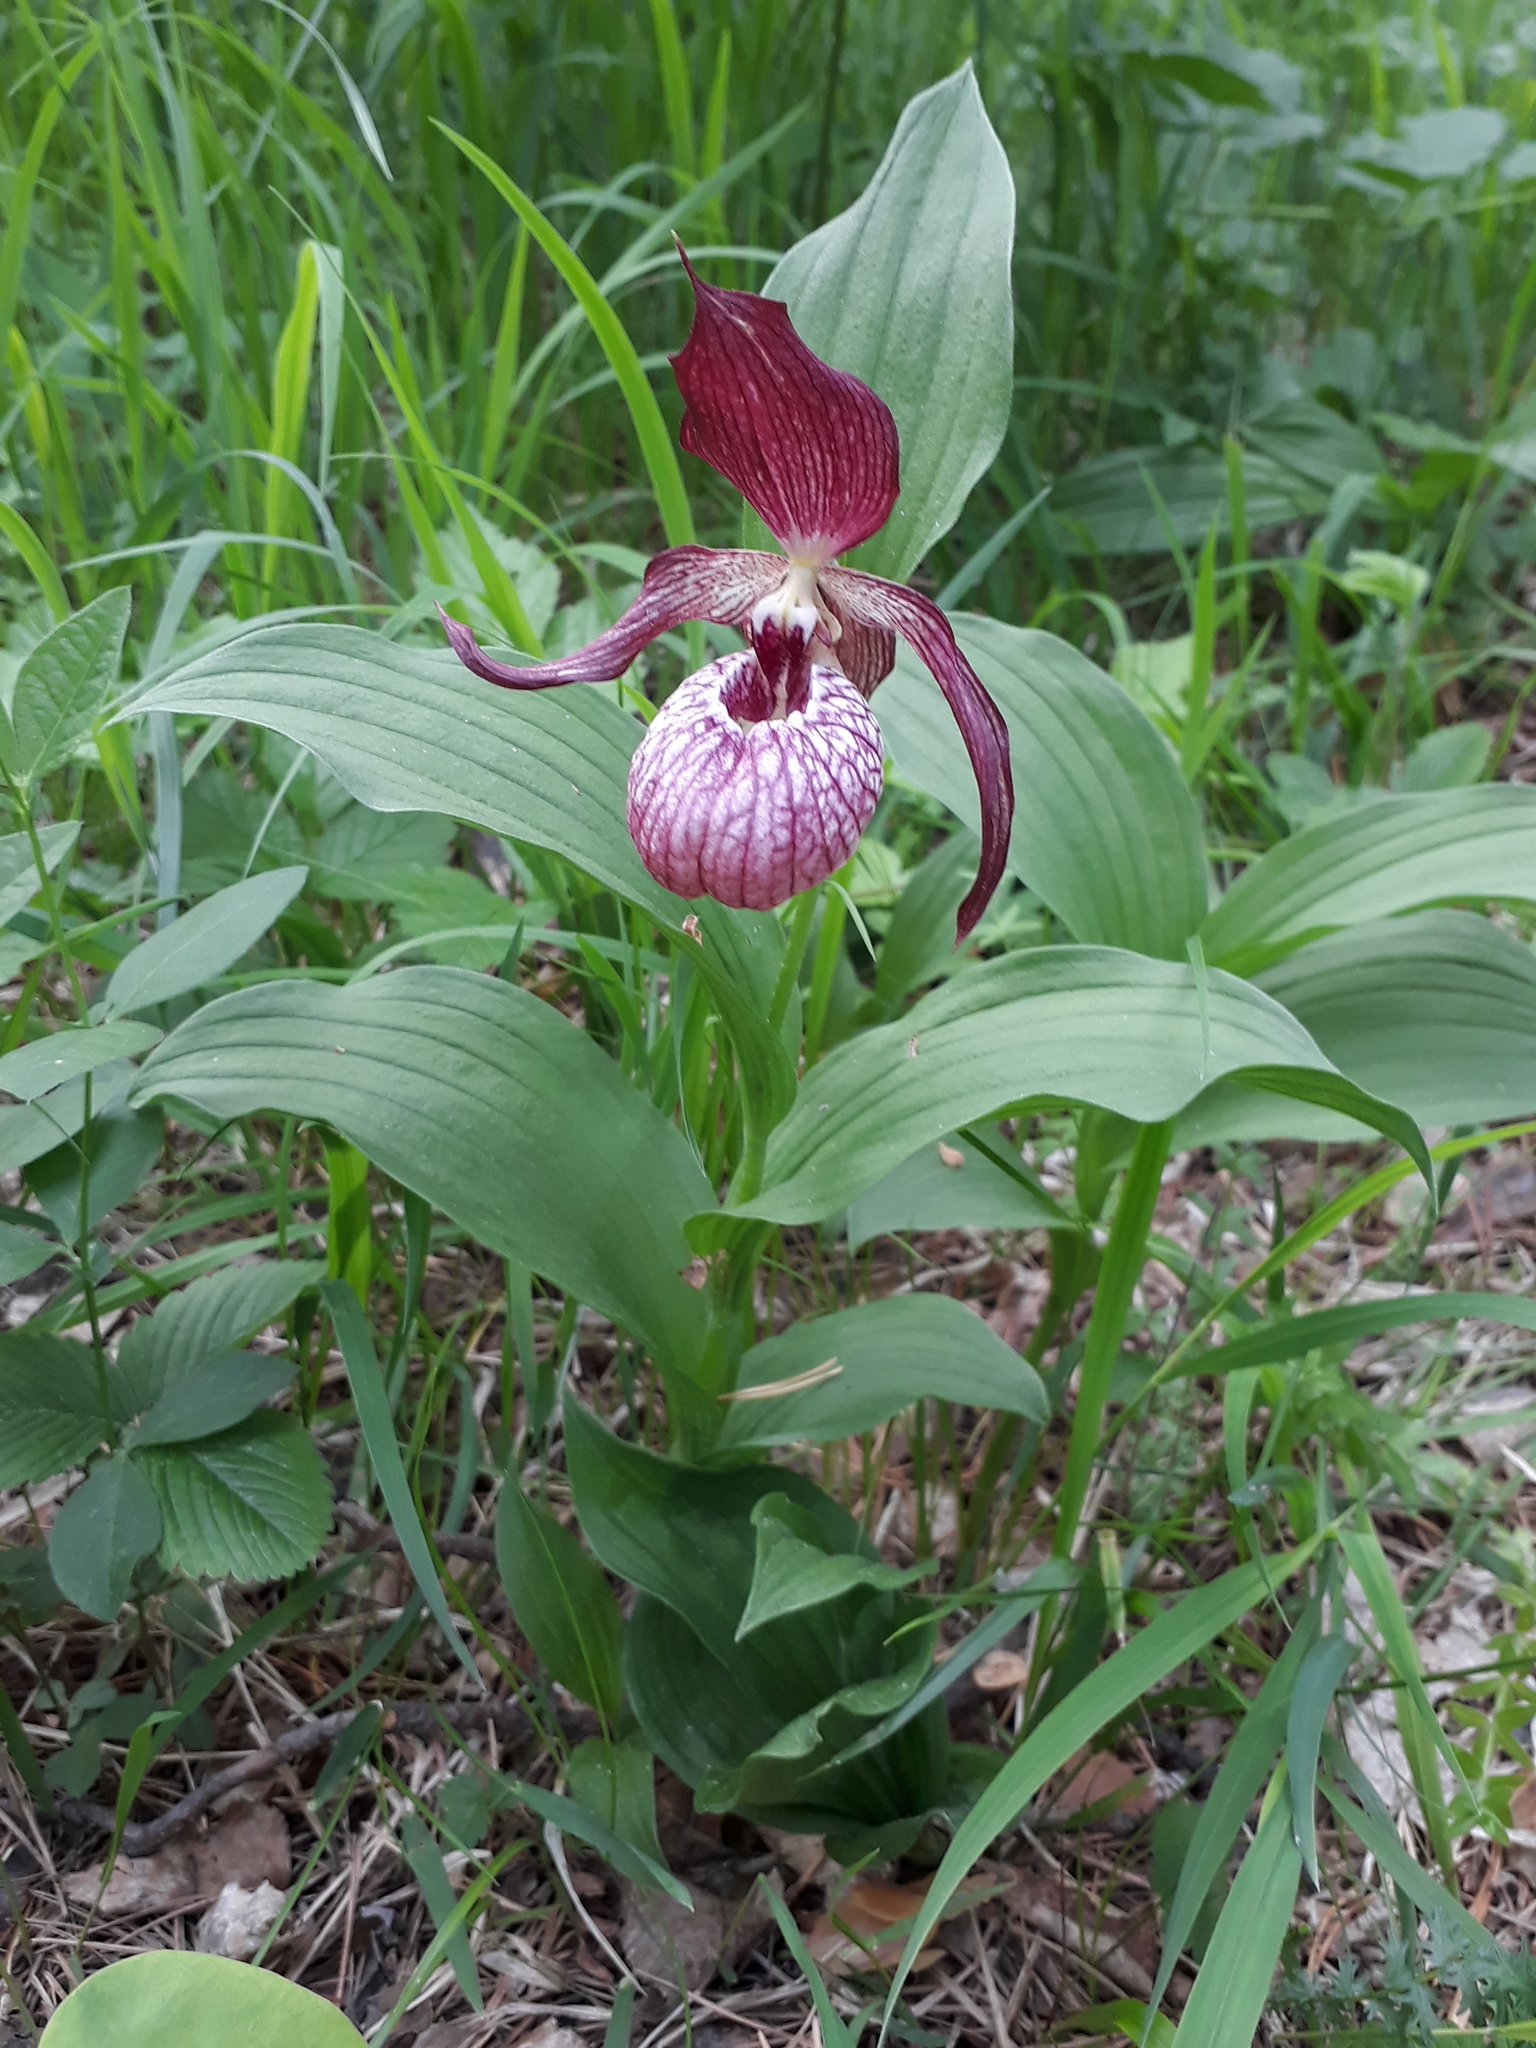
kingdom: Plantae
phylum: Tracheophyta
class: Liliopsida
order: Asparagales
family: Orchidaceae
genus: Cypripedium
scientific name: Cypripedium ventricosum
